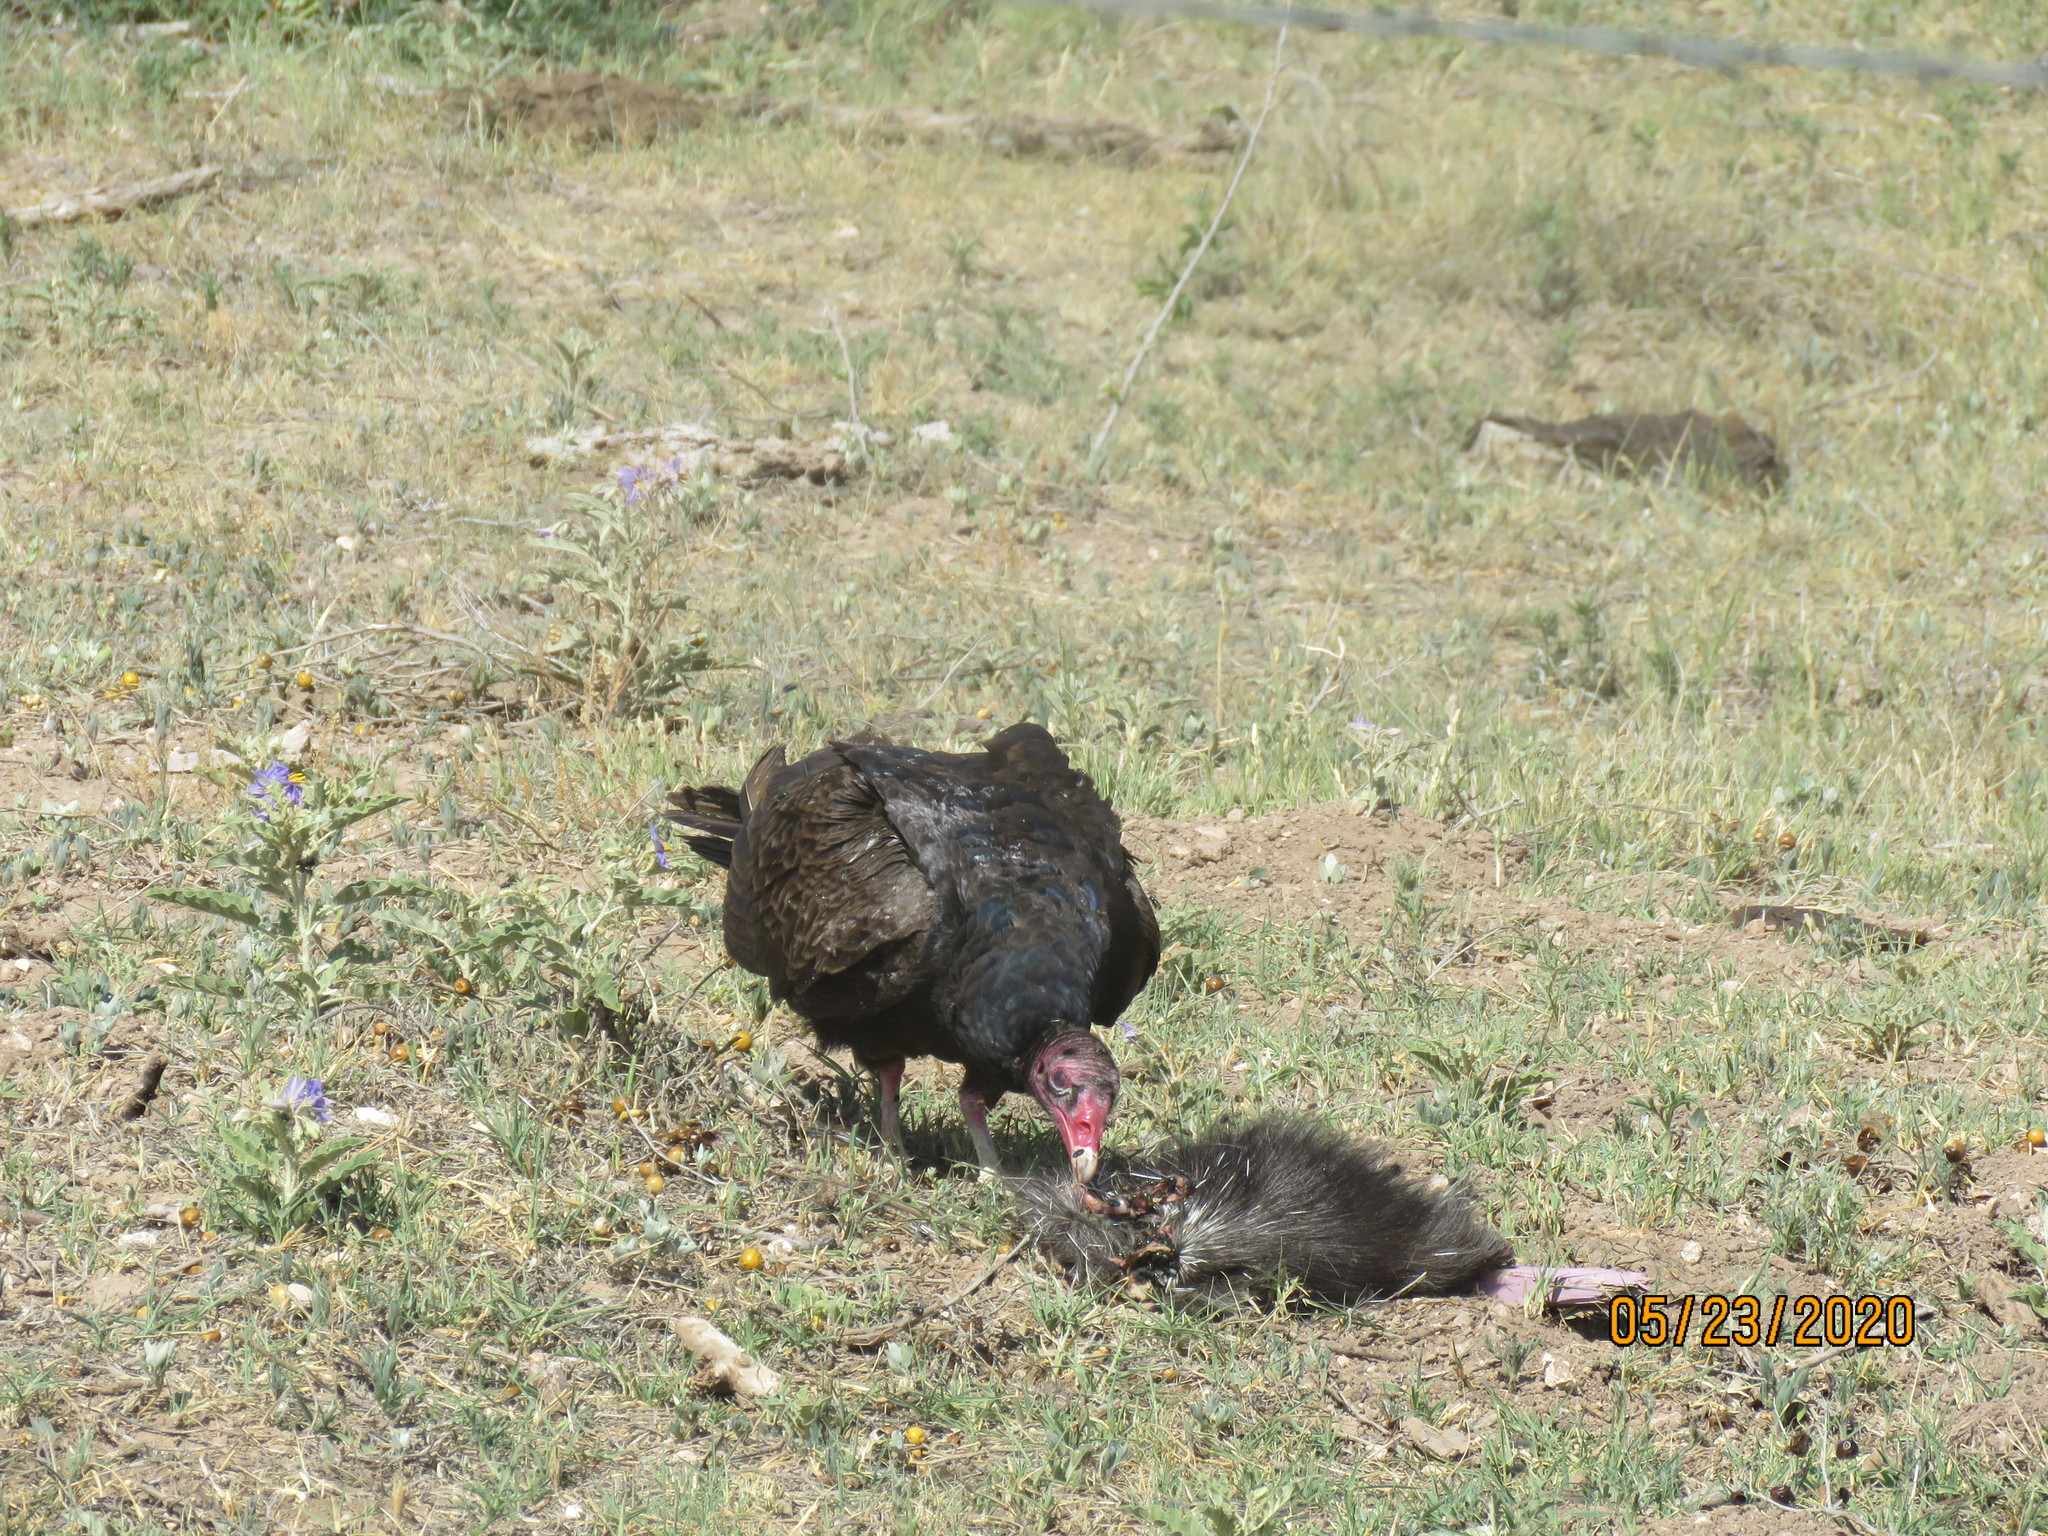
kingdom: Animalia
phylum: Chordata
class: Aves
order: Accipitriformes
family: Cathartidae
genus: Cathartes
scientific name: Cathartes aura
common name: Turkey vulture
